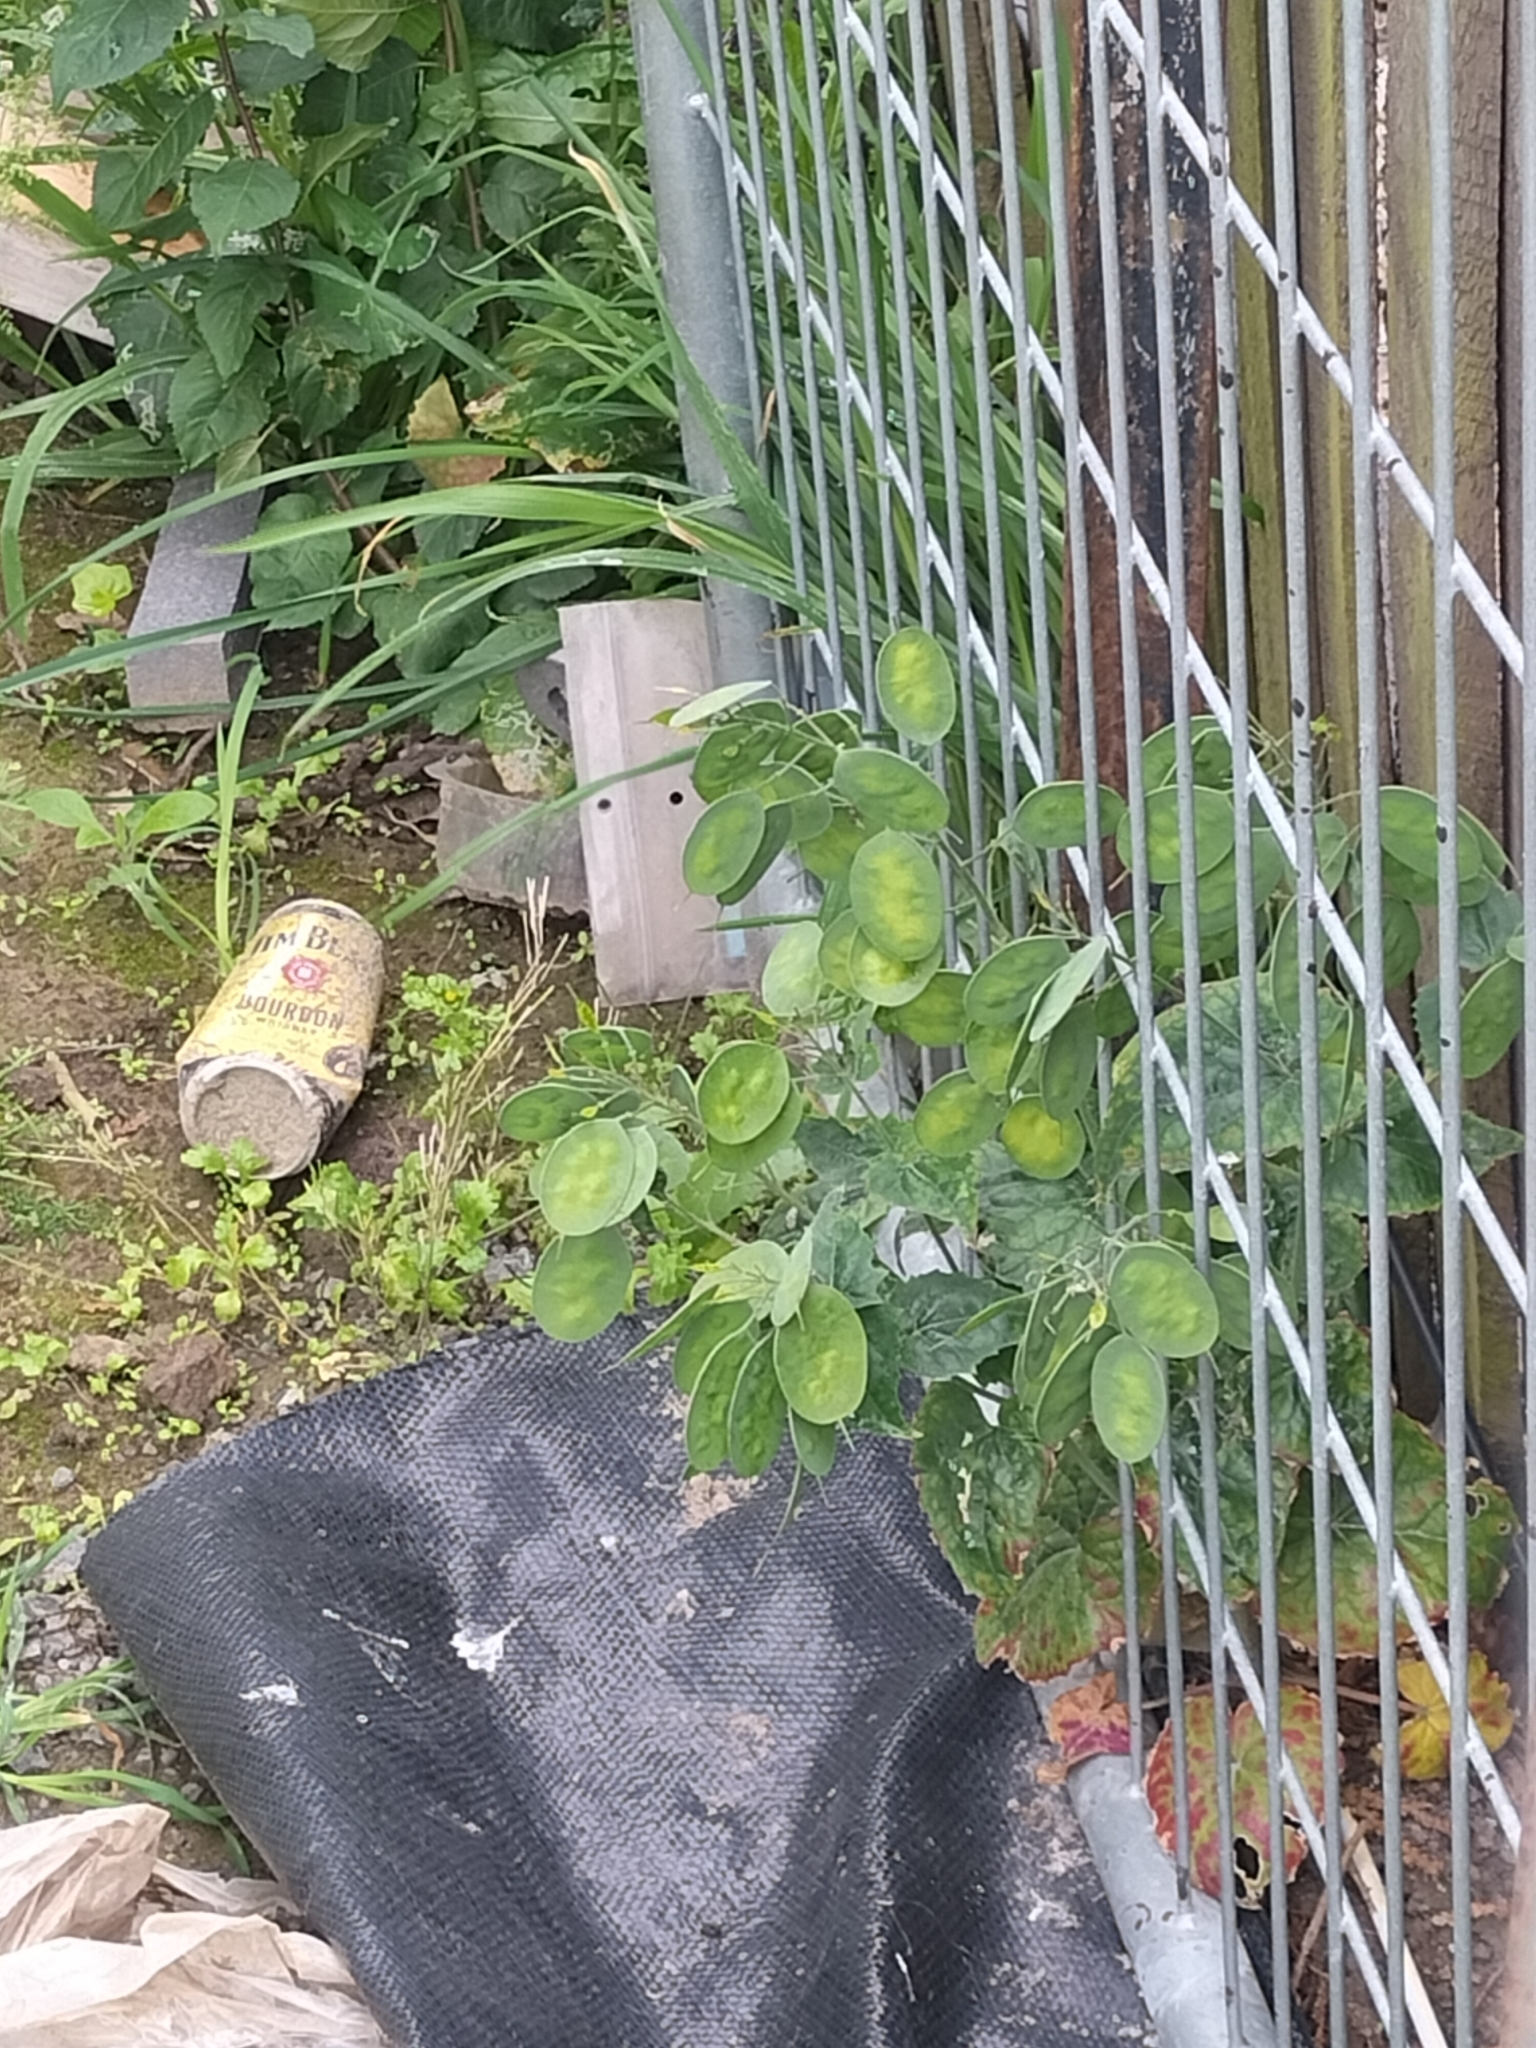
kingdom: Plantae
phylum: Tracheophyta
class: Magnoliopsida
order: Brassicales
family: Brassicaceae
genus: Lunaria
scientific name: Lunaria annua
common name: Honesty
